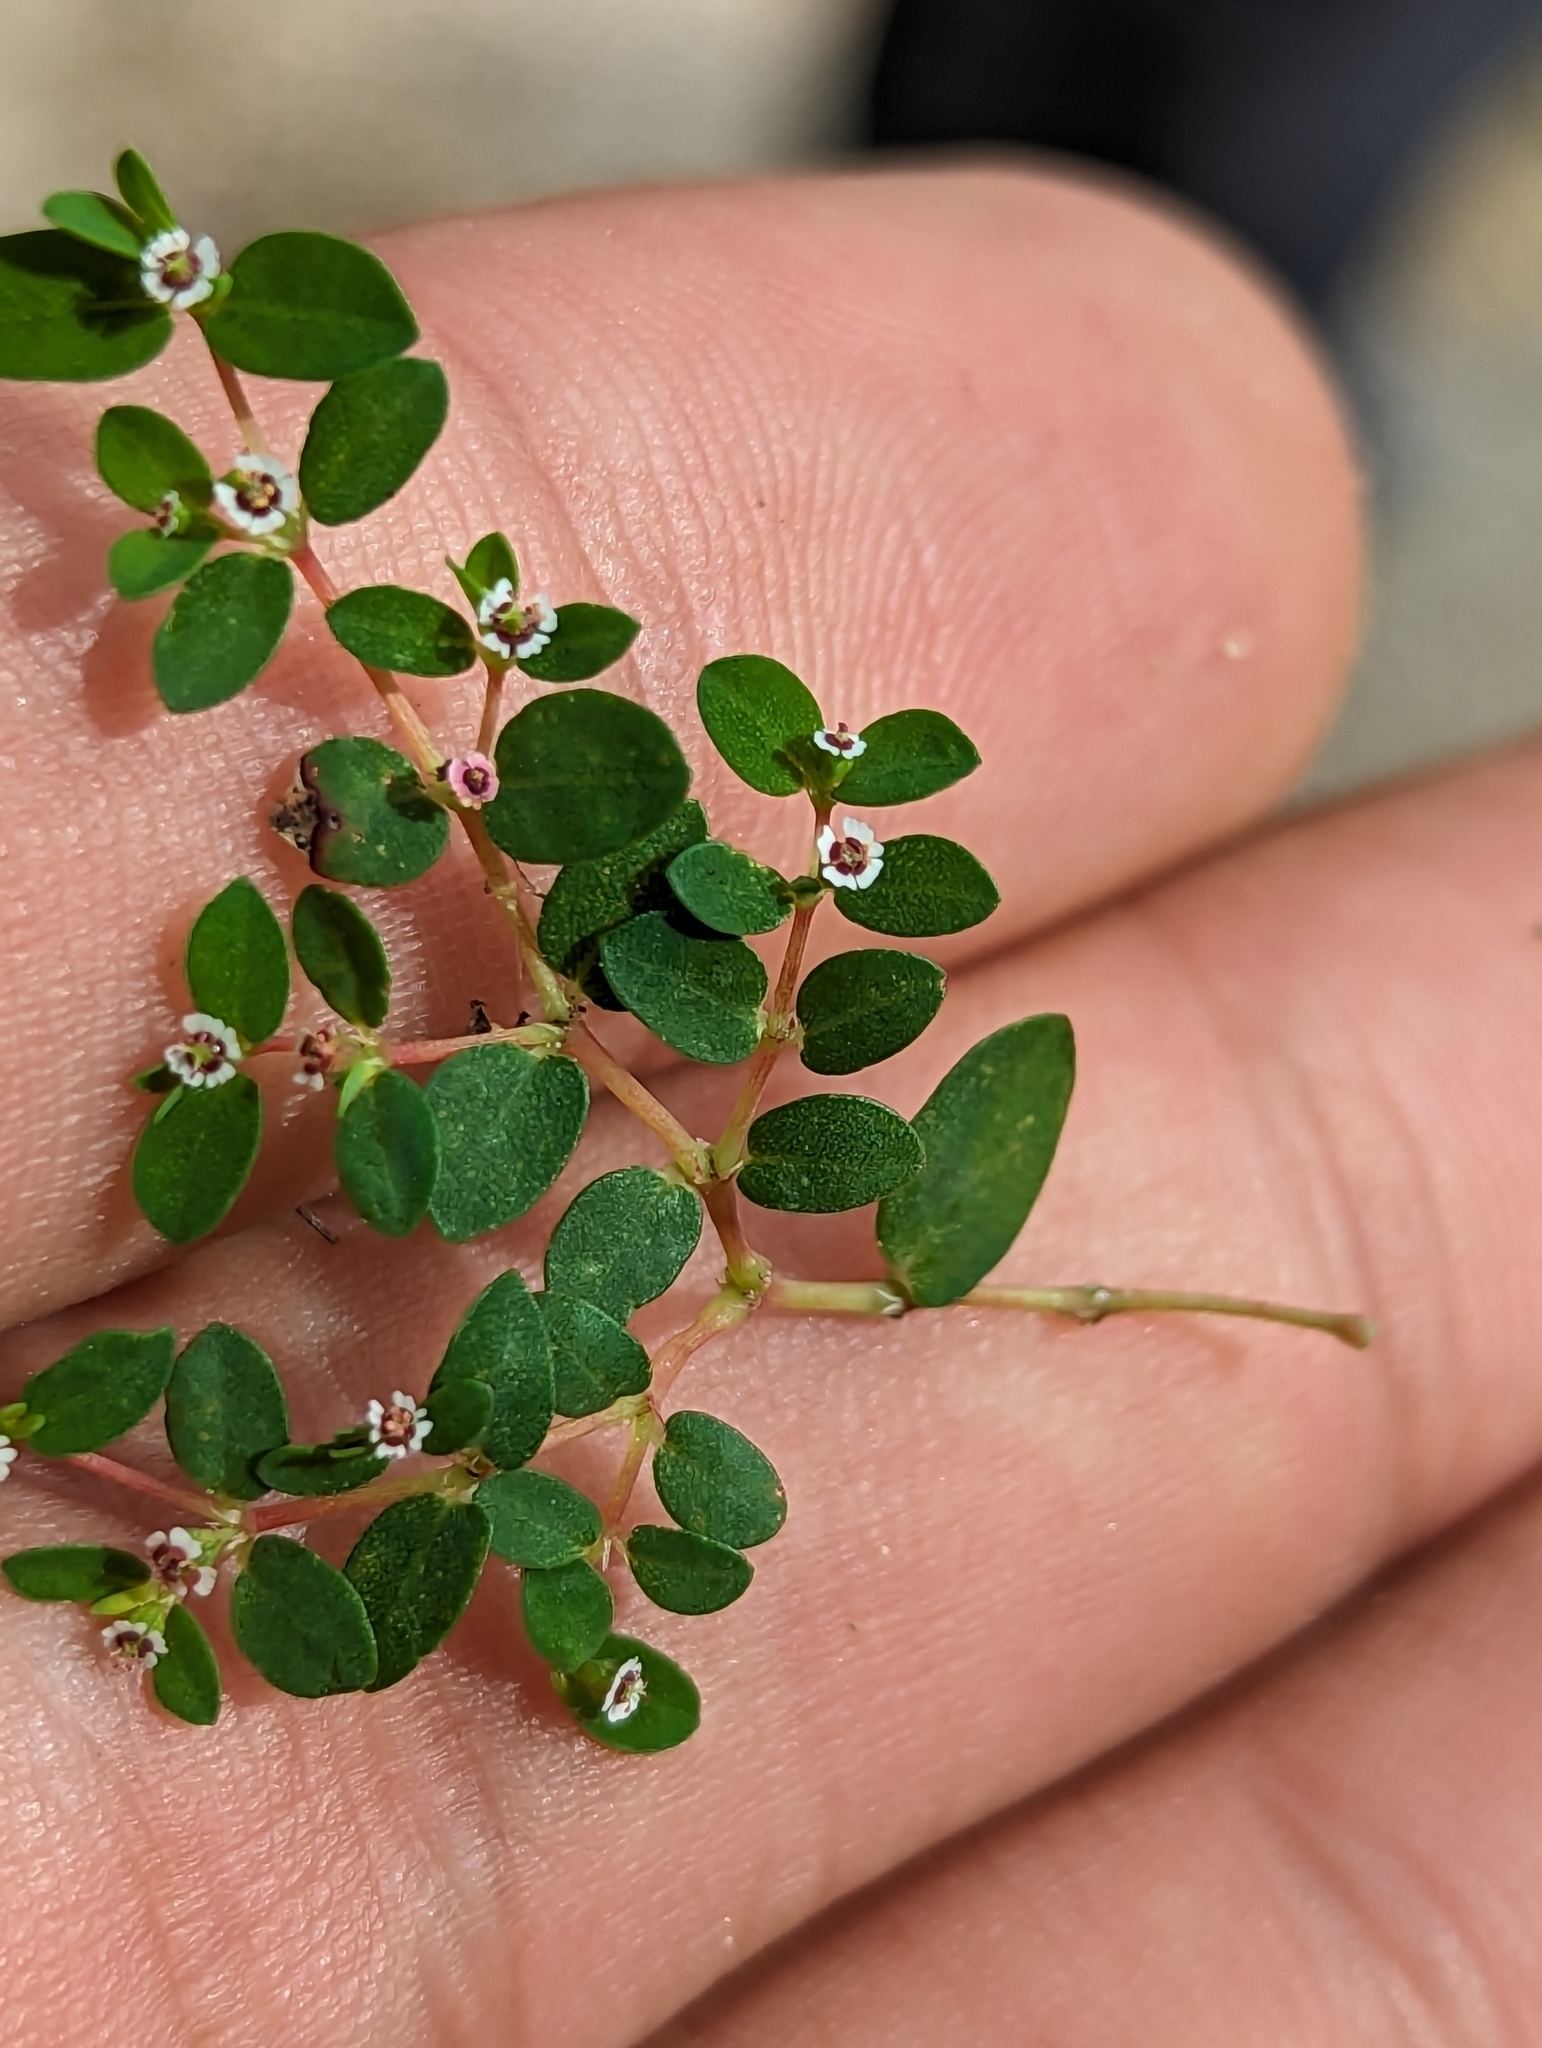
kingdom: Plantae
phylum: Tracheophyta
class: Magnoliopsida
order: Malpighiales
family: Euphorbiaceae
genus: Euphorbia
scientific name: Euphorbia polycarpa
